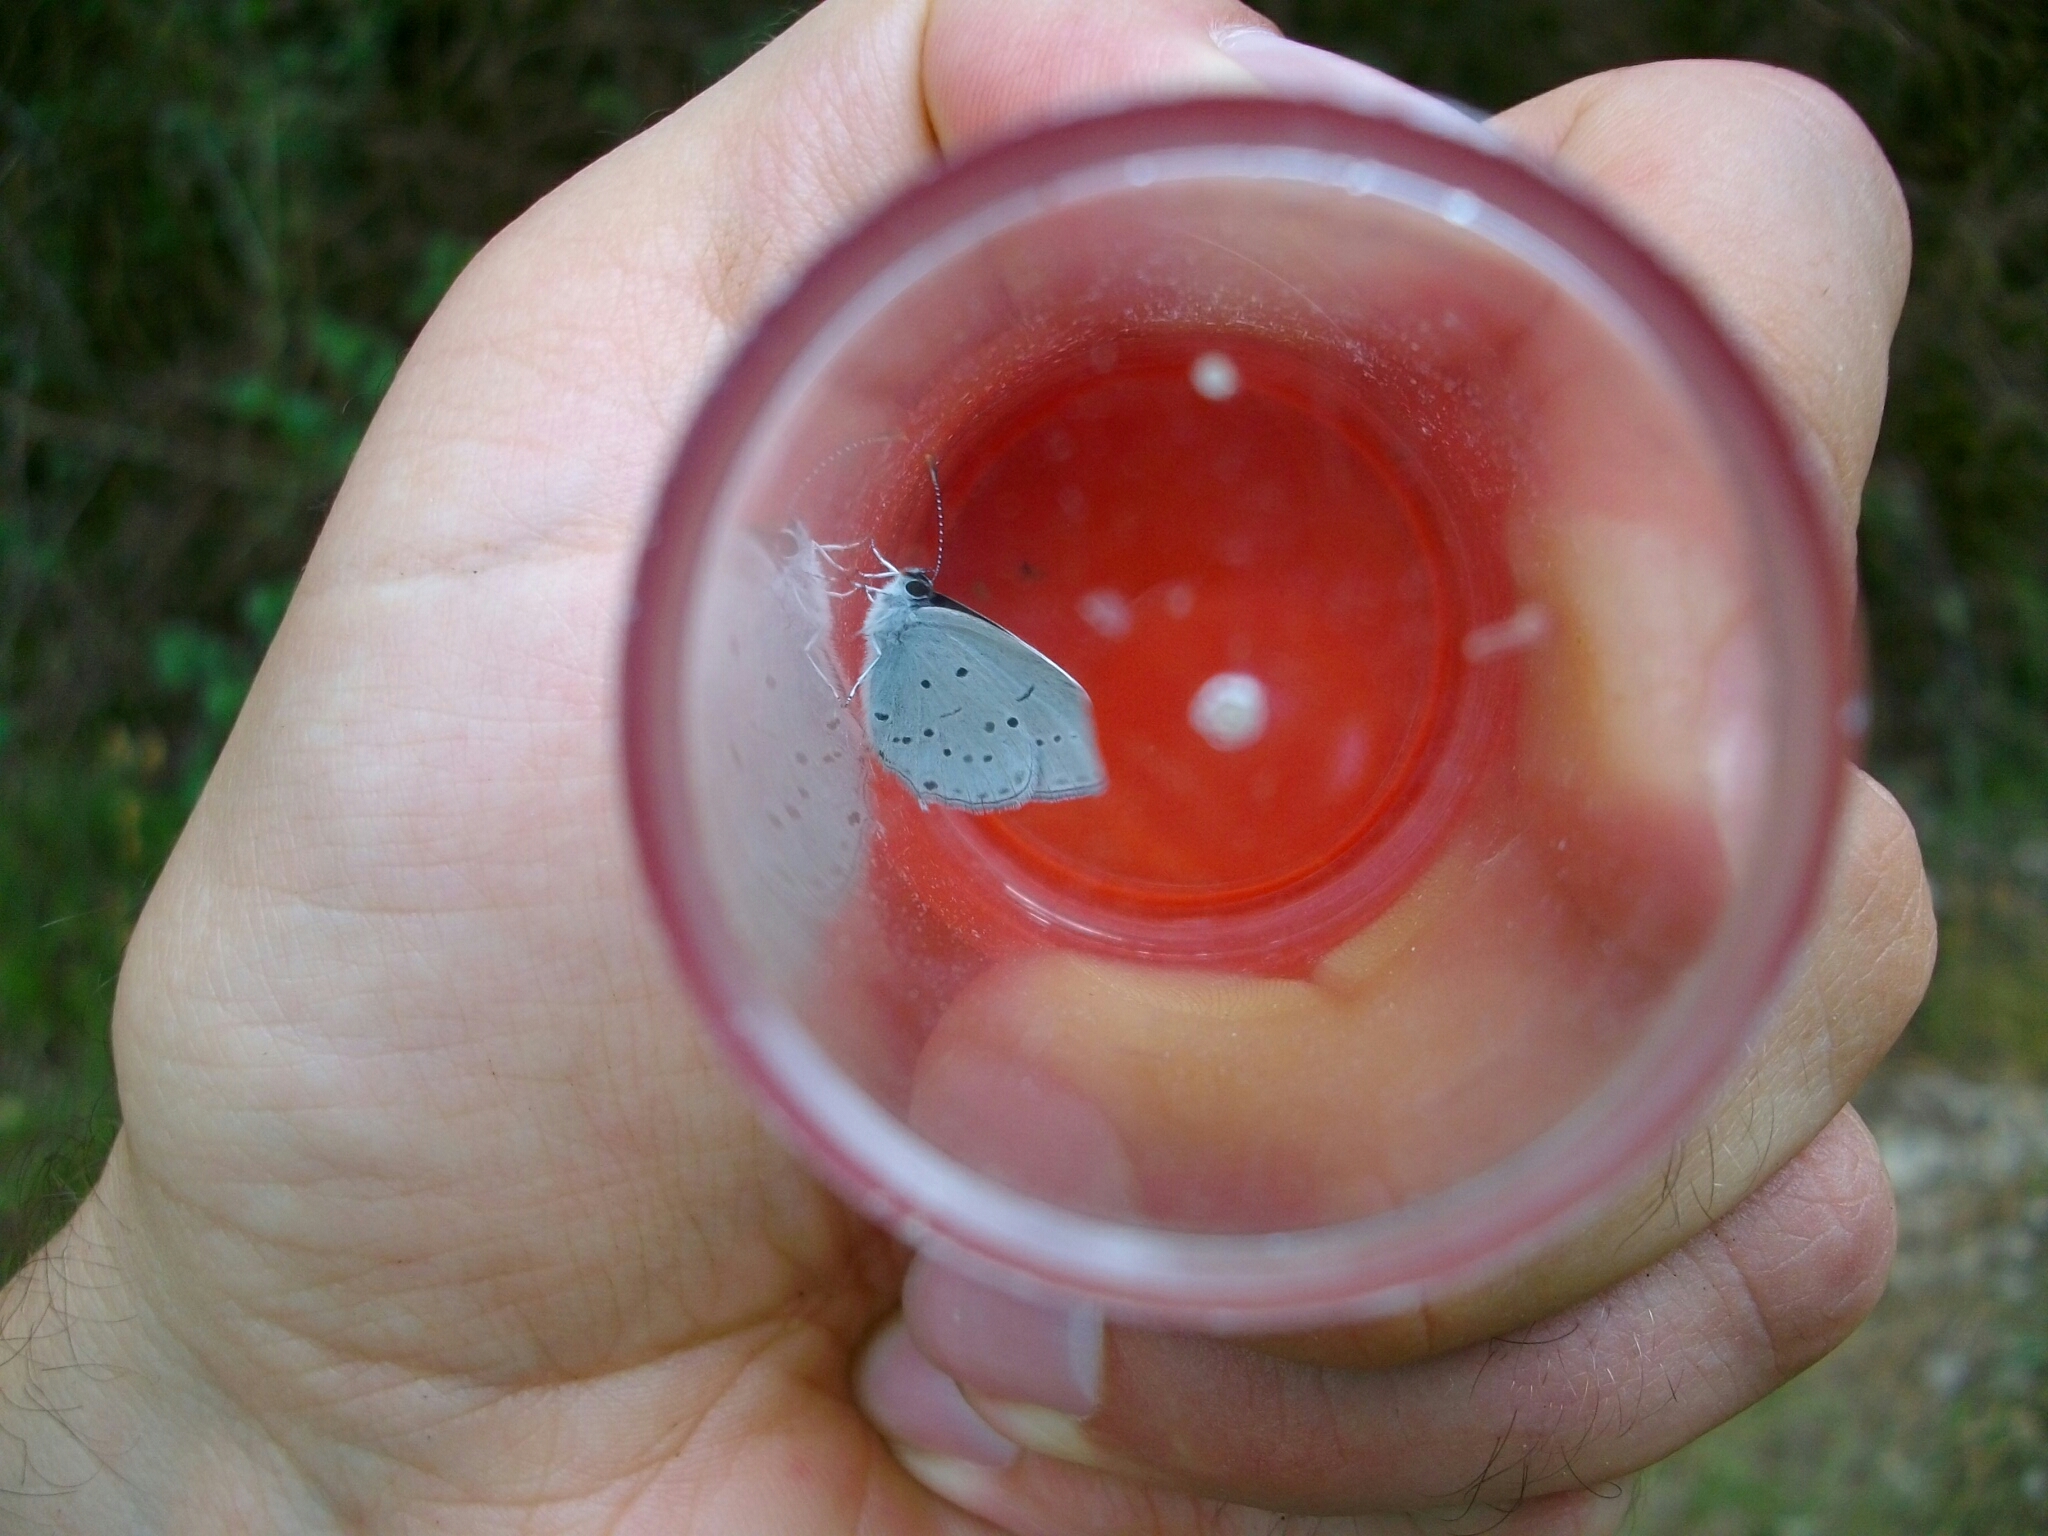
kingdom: Animalia
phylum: Arthropoda
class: Insecta
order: Lepidoptera
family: Lycaenidae
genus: Elkalyce
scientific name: Elkalyce alcetas
